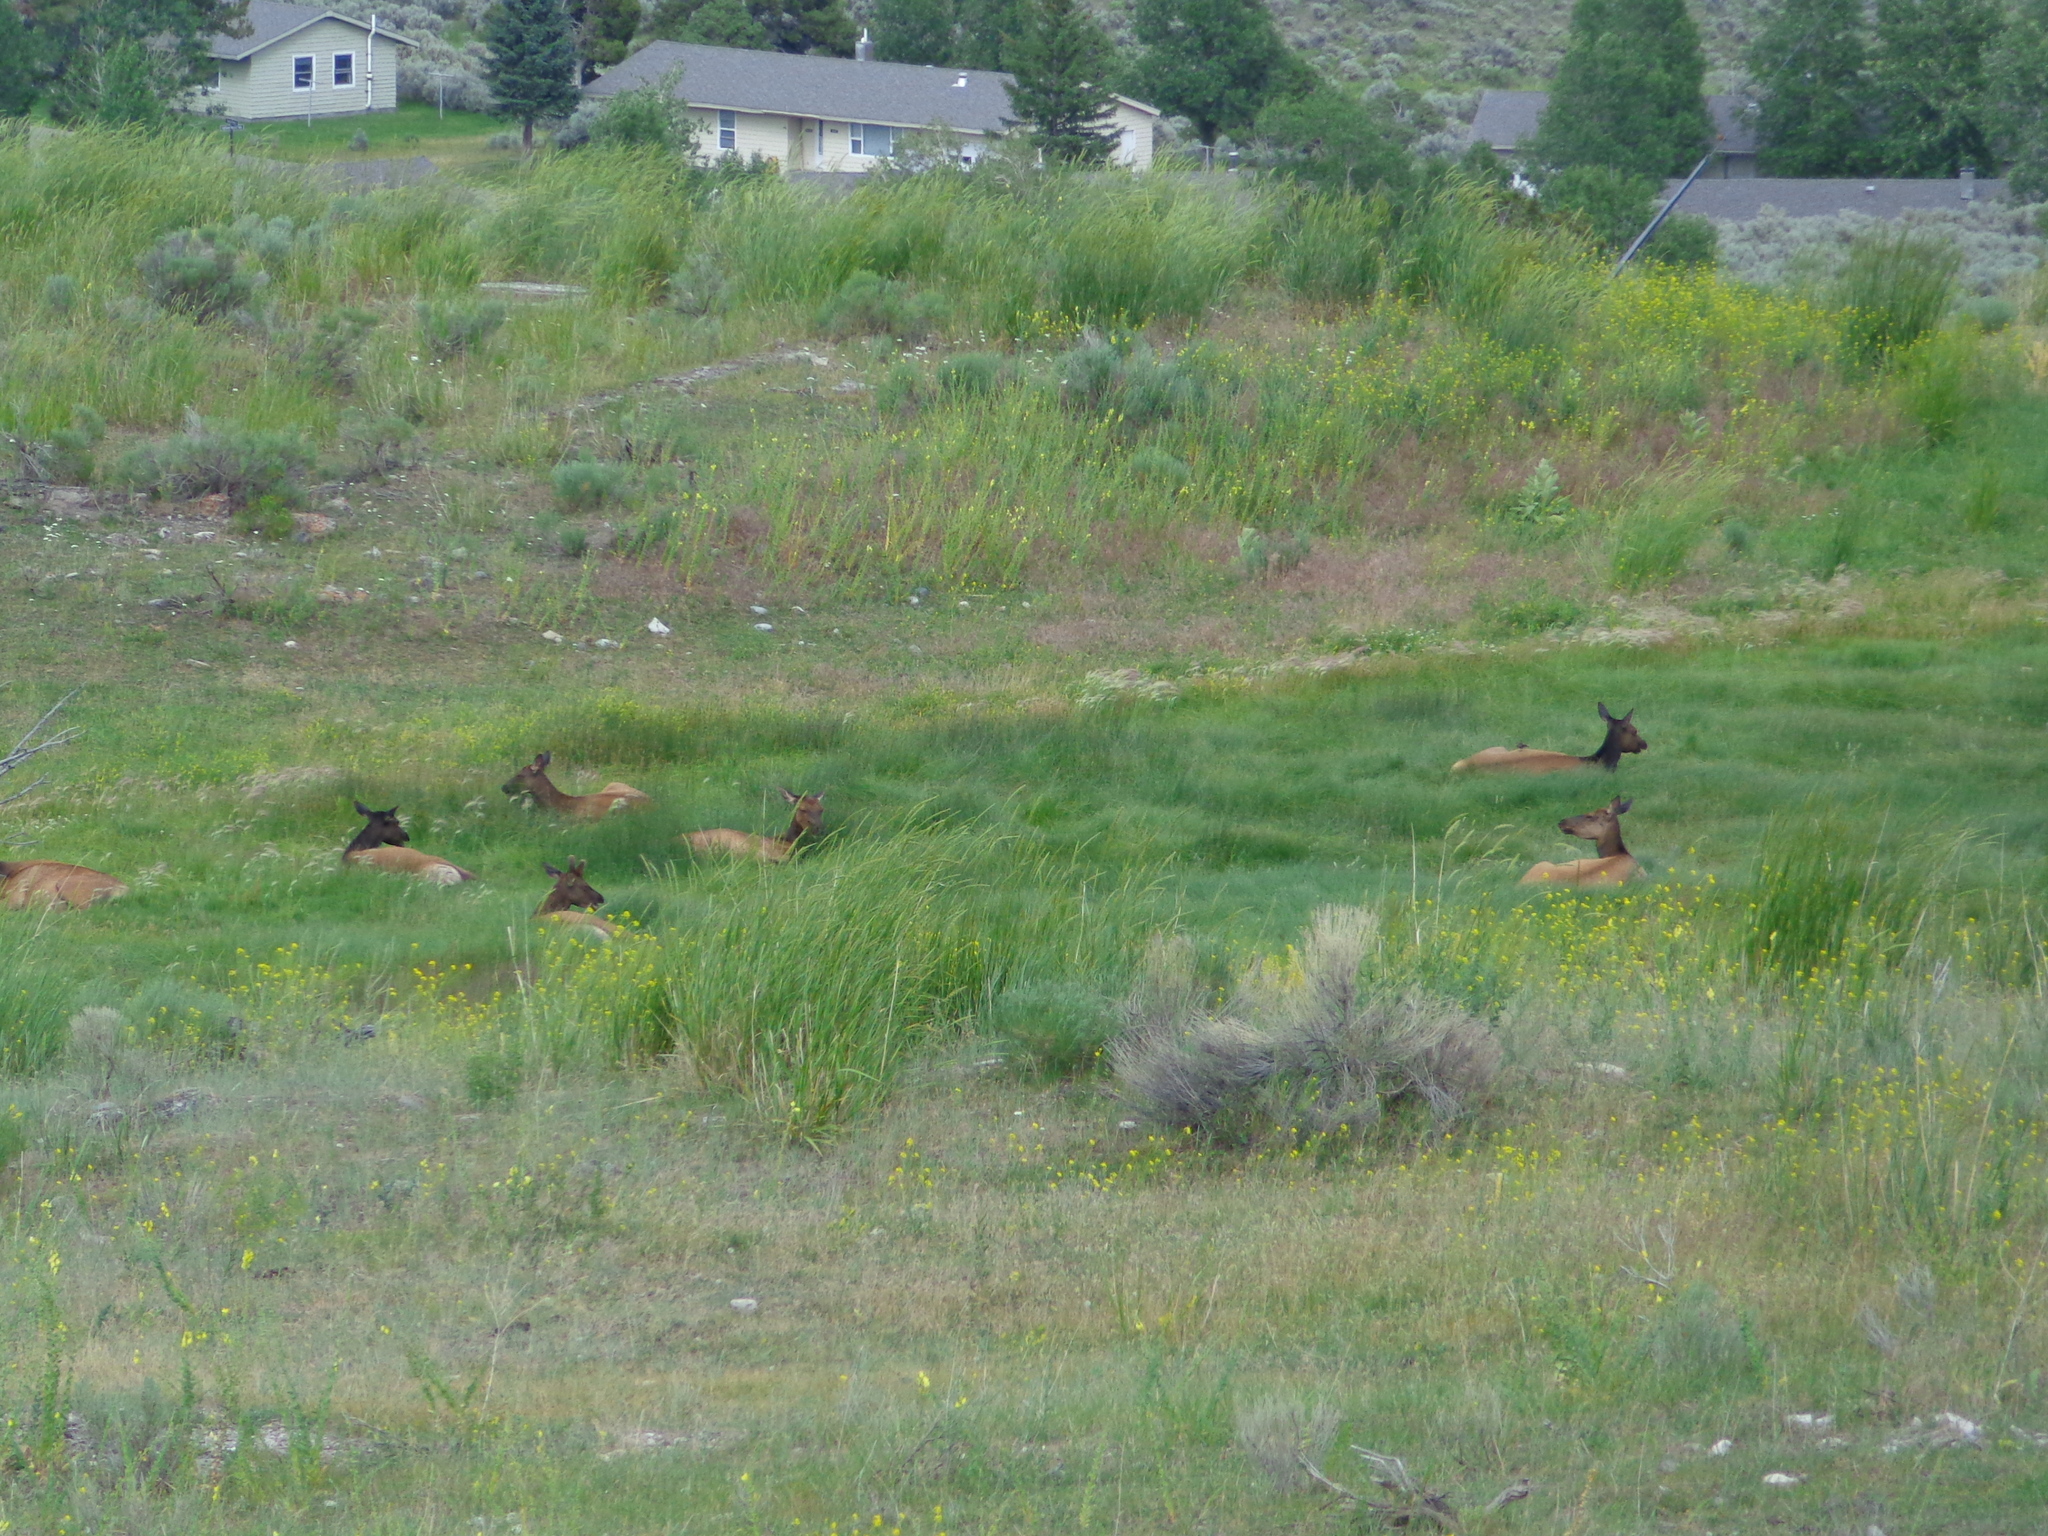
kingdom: Animalia
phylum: Chordata
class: Mammalia
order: Artiodactyla
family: Cervidae
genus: Cervus
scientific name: Cervus elaphus
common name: Red deer
